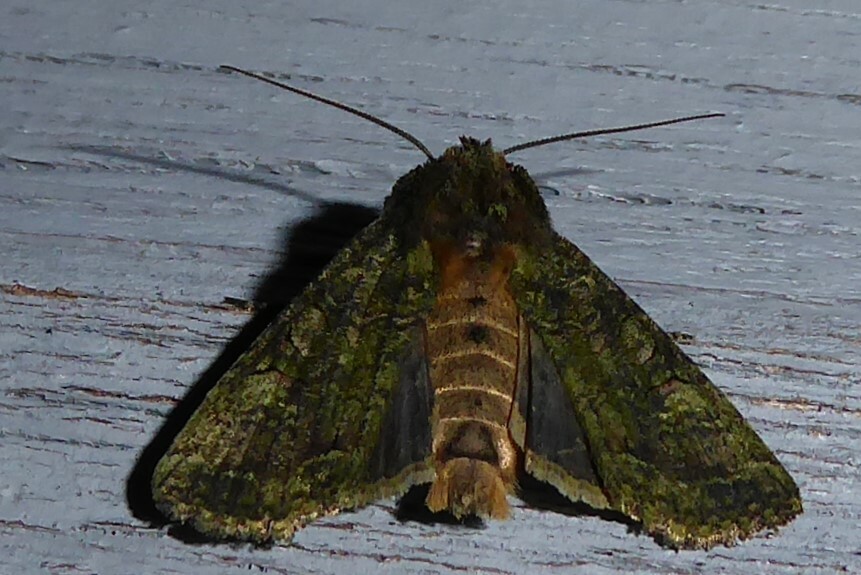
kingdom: Animalia
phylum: Arthropoda
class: Insecta
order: Lepidoptera
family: Noctuidae
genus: Meterana
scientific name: Meterana levis
